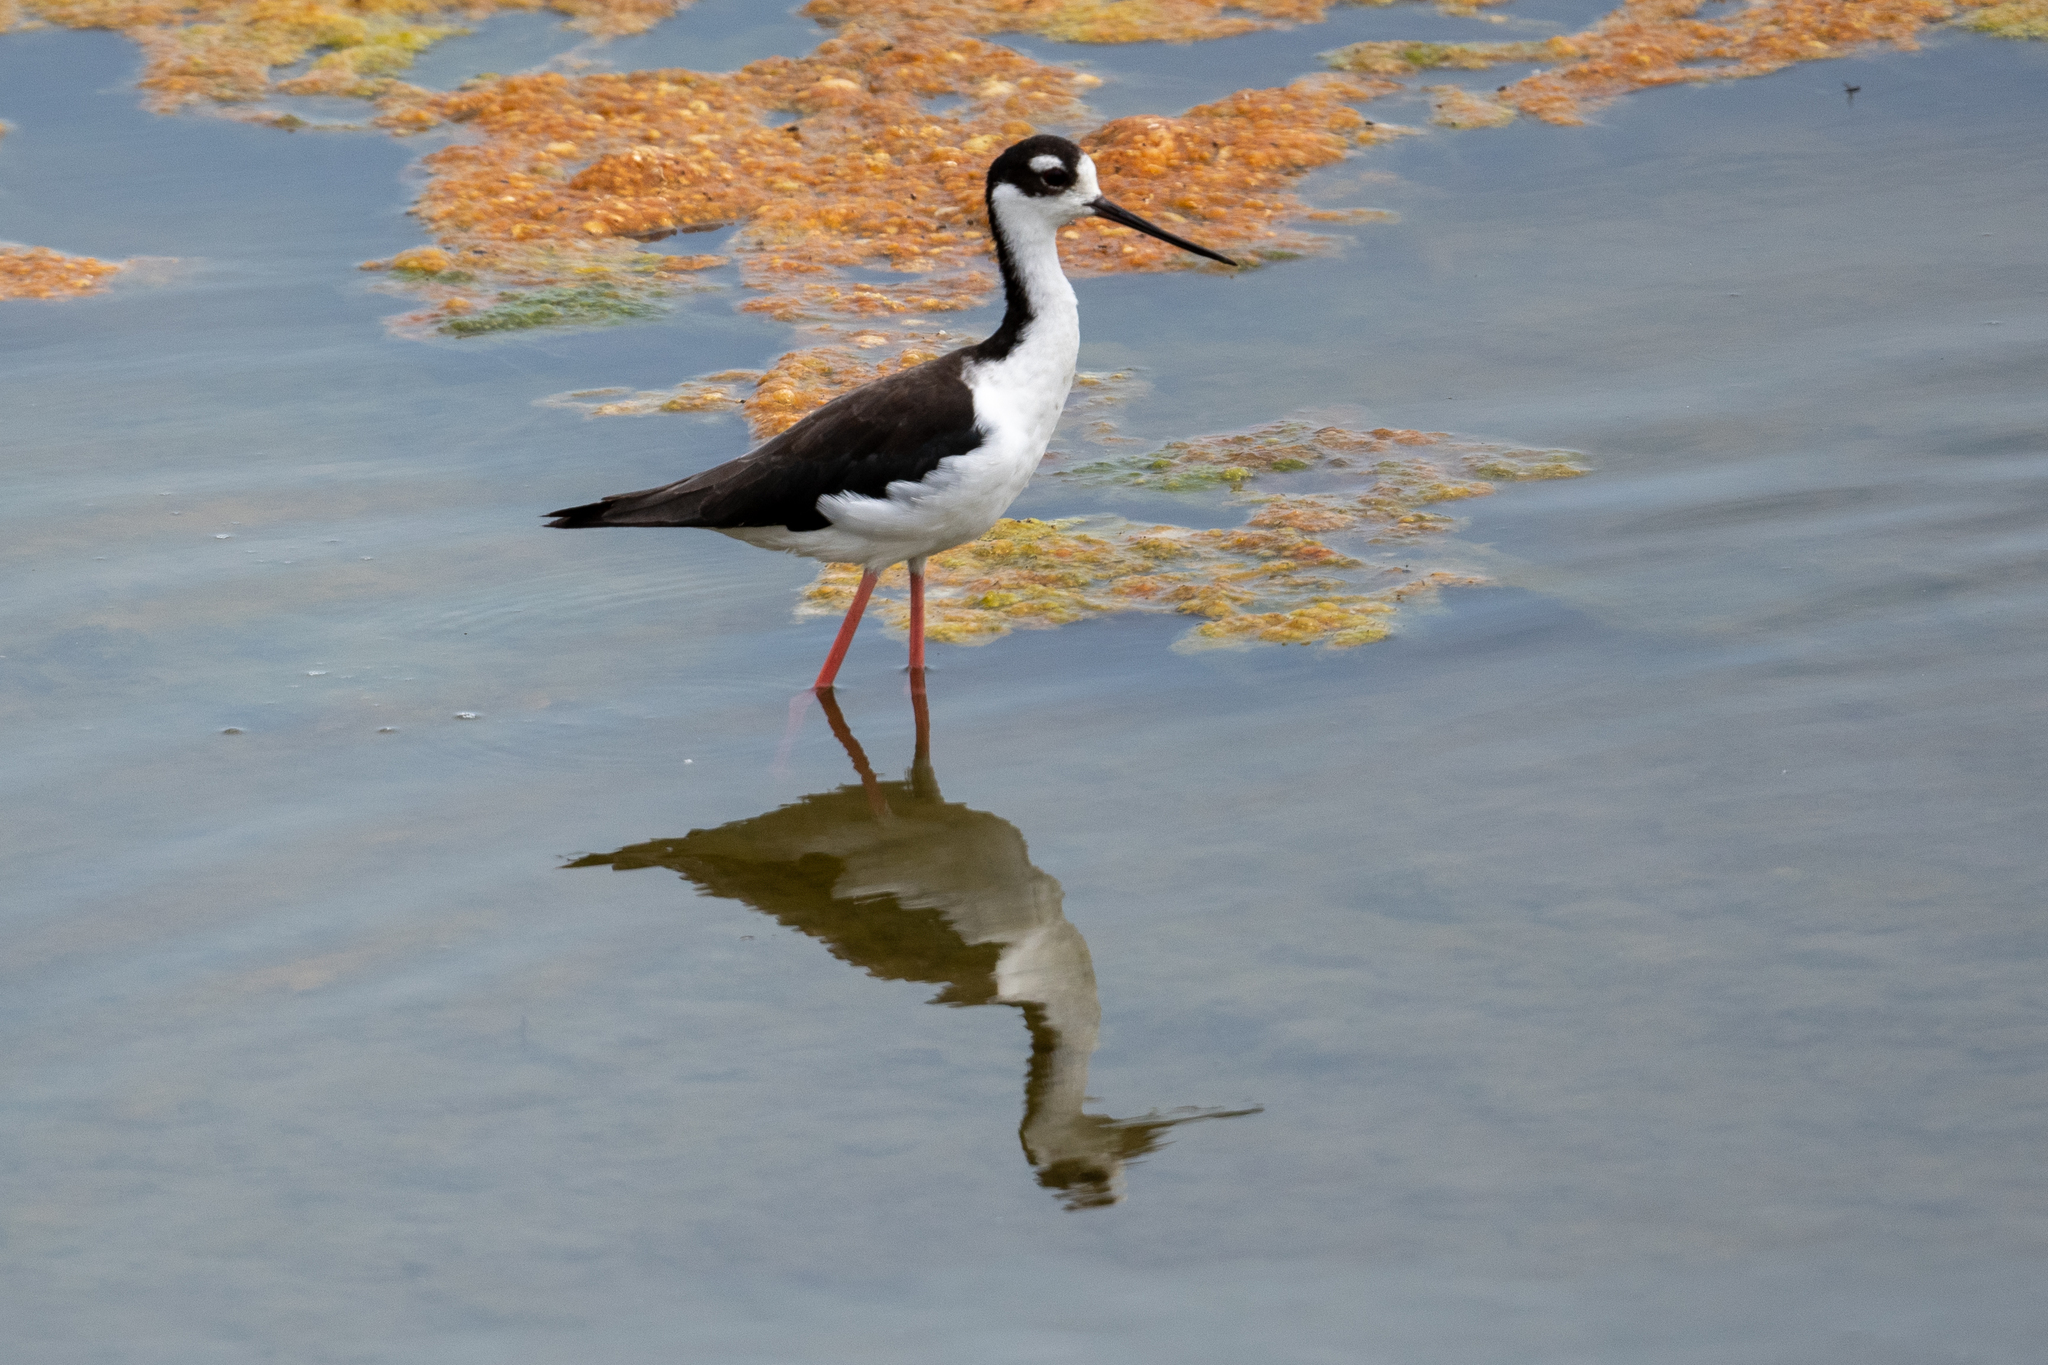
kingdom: Animalia
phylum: Chordata
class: Aves
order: Charadriiformes
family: Recurvirostridae
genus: Himantopus
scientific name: Himantopus mexicanus
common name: Black-necked stilt
